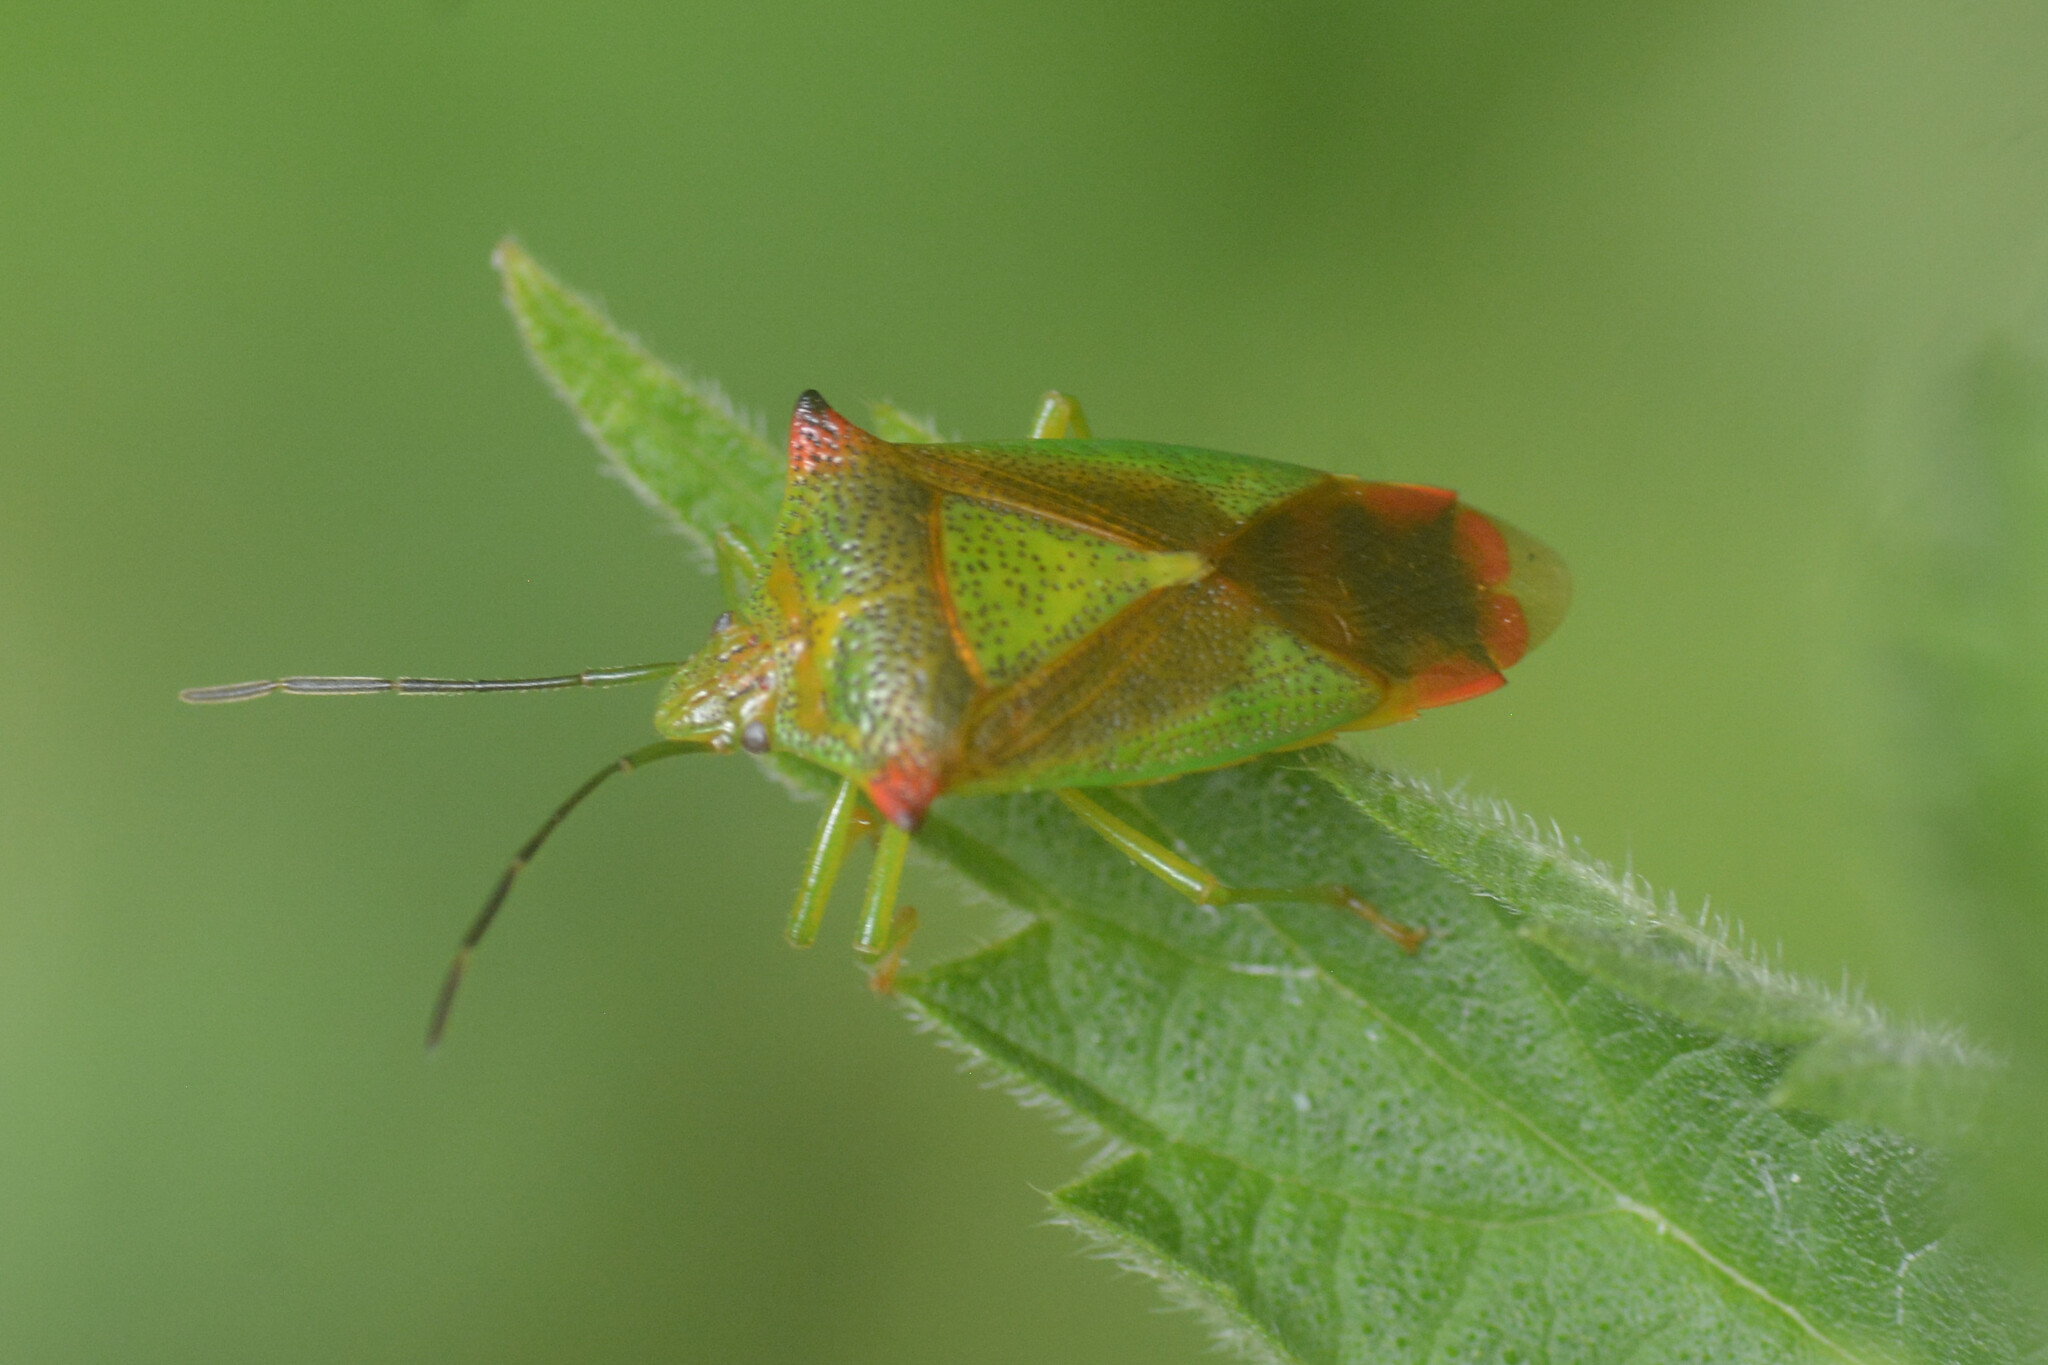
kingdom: Animalia
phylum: Arthropoda
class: Insecta
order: Hemiptera
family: Acanthosomatidae
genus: Acanthosoma
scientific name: Acanthosoma haemorrhoidale
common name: Hawthorn shieldbug
